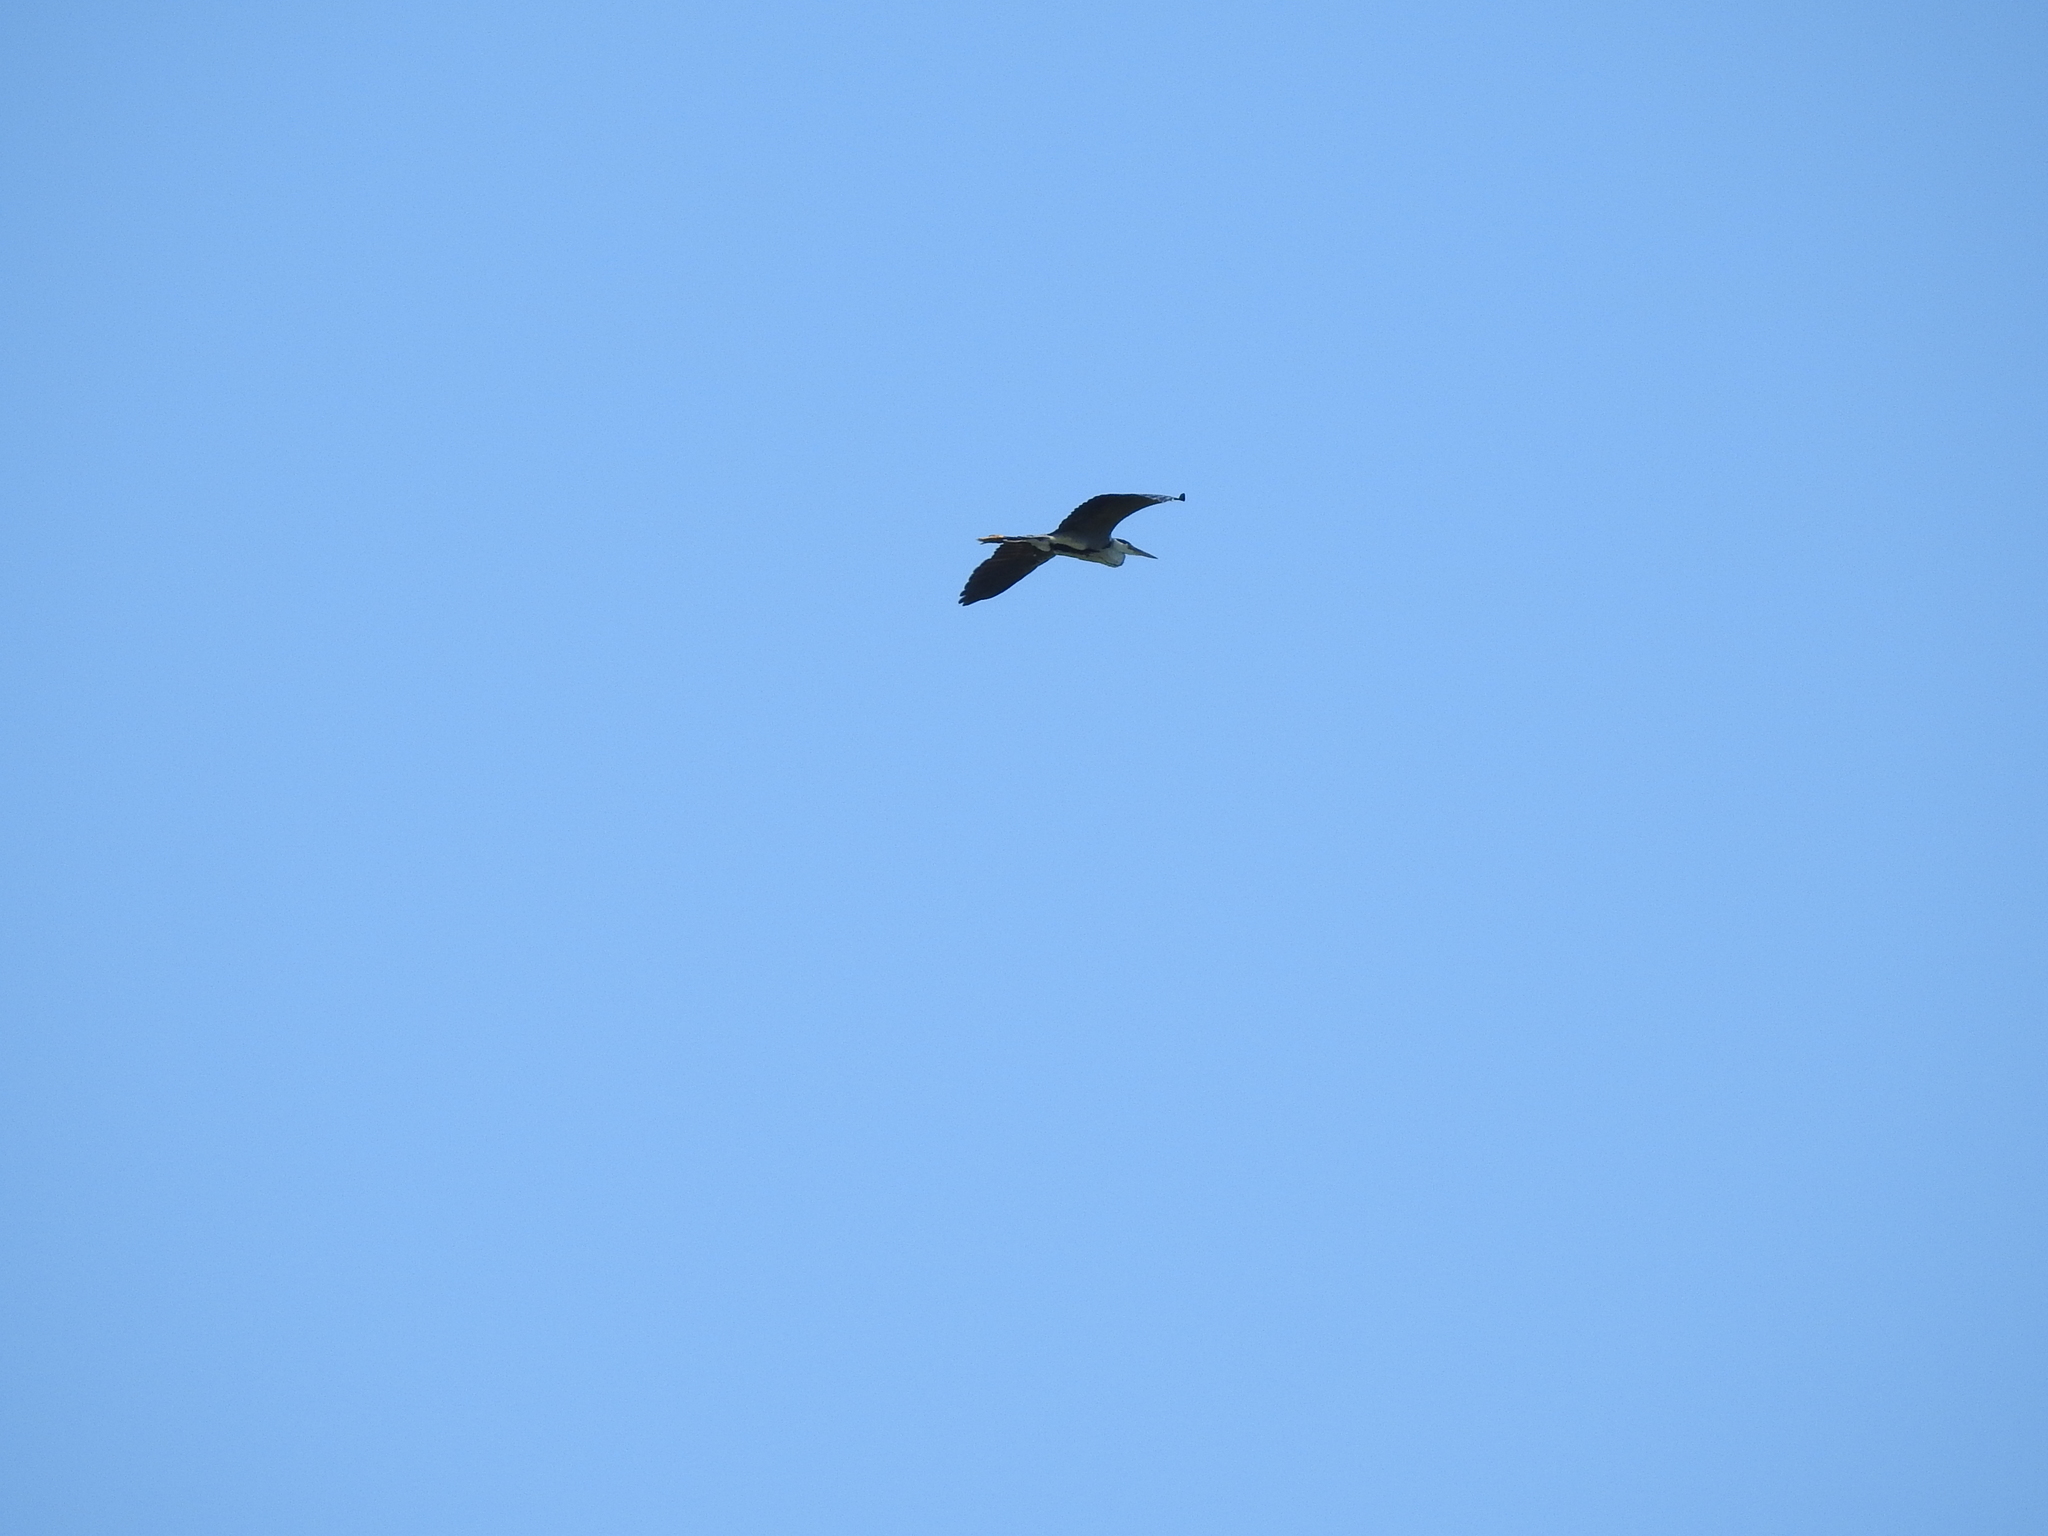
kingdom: Animalia
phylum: Chordata
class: Aves
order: Pelecaniformes
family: Ardeidae
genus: Ardea
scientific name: Ardea cinerea
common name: Grey heron
